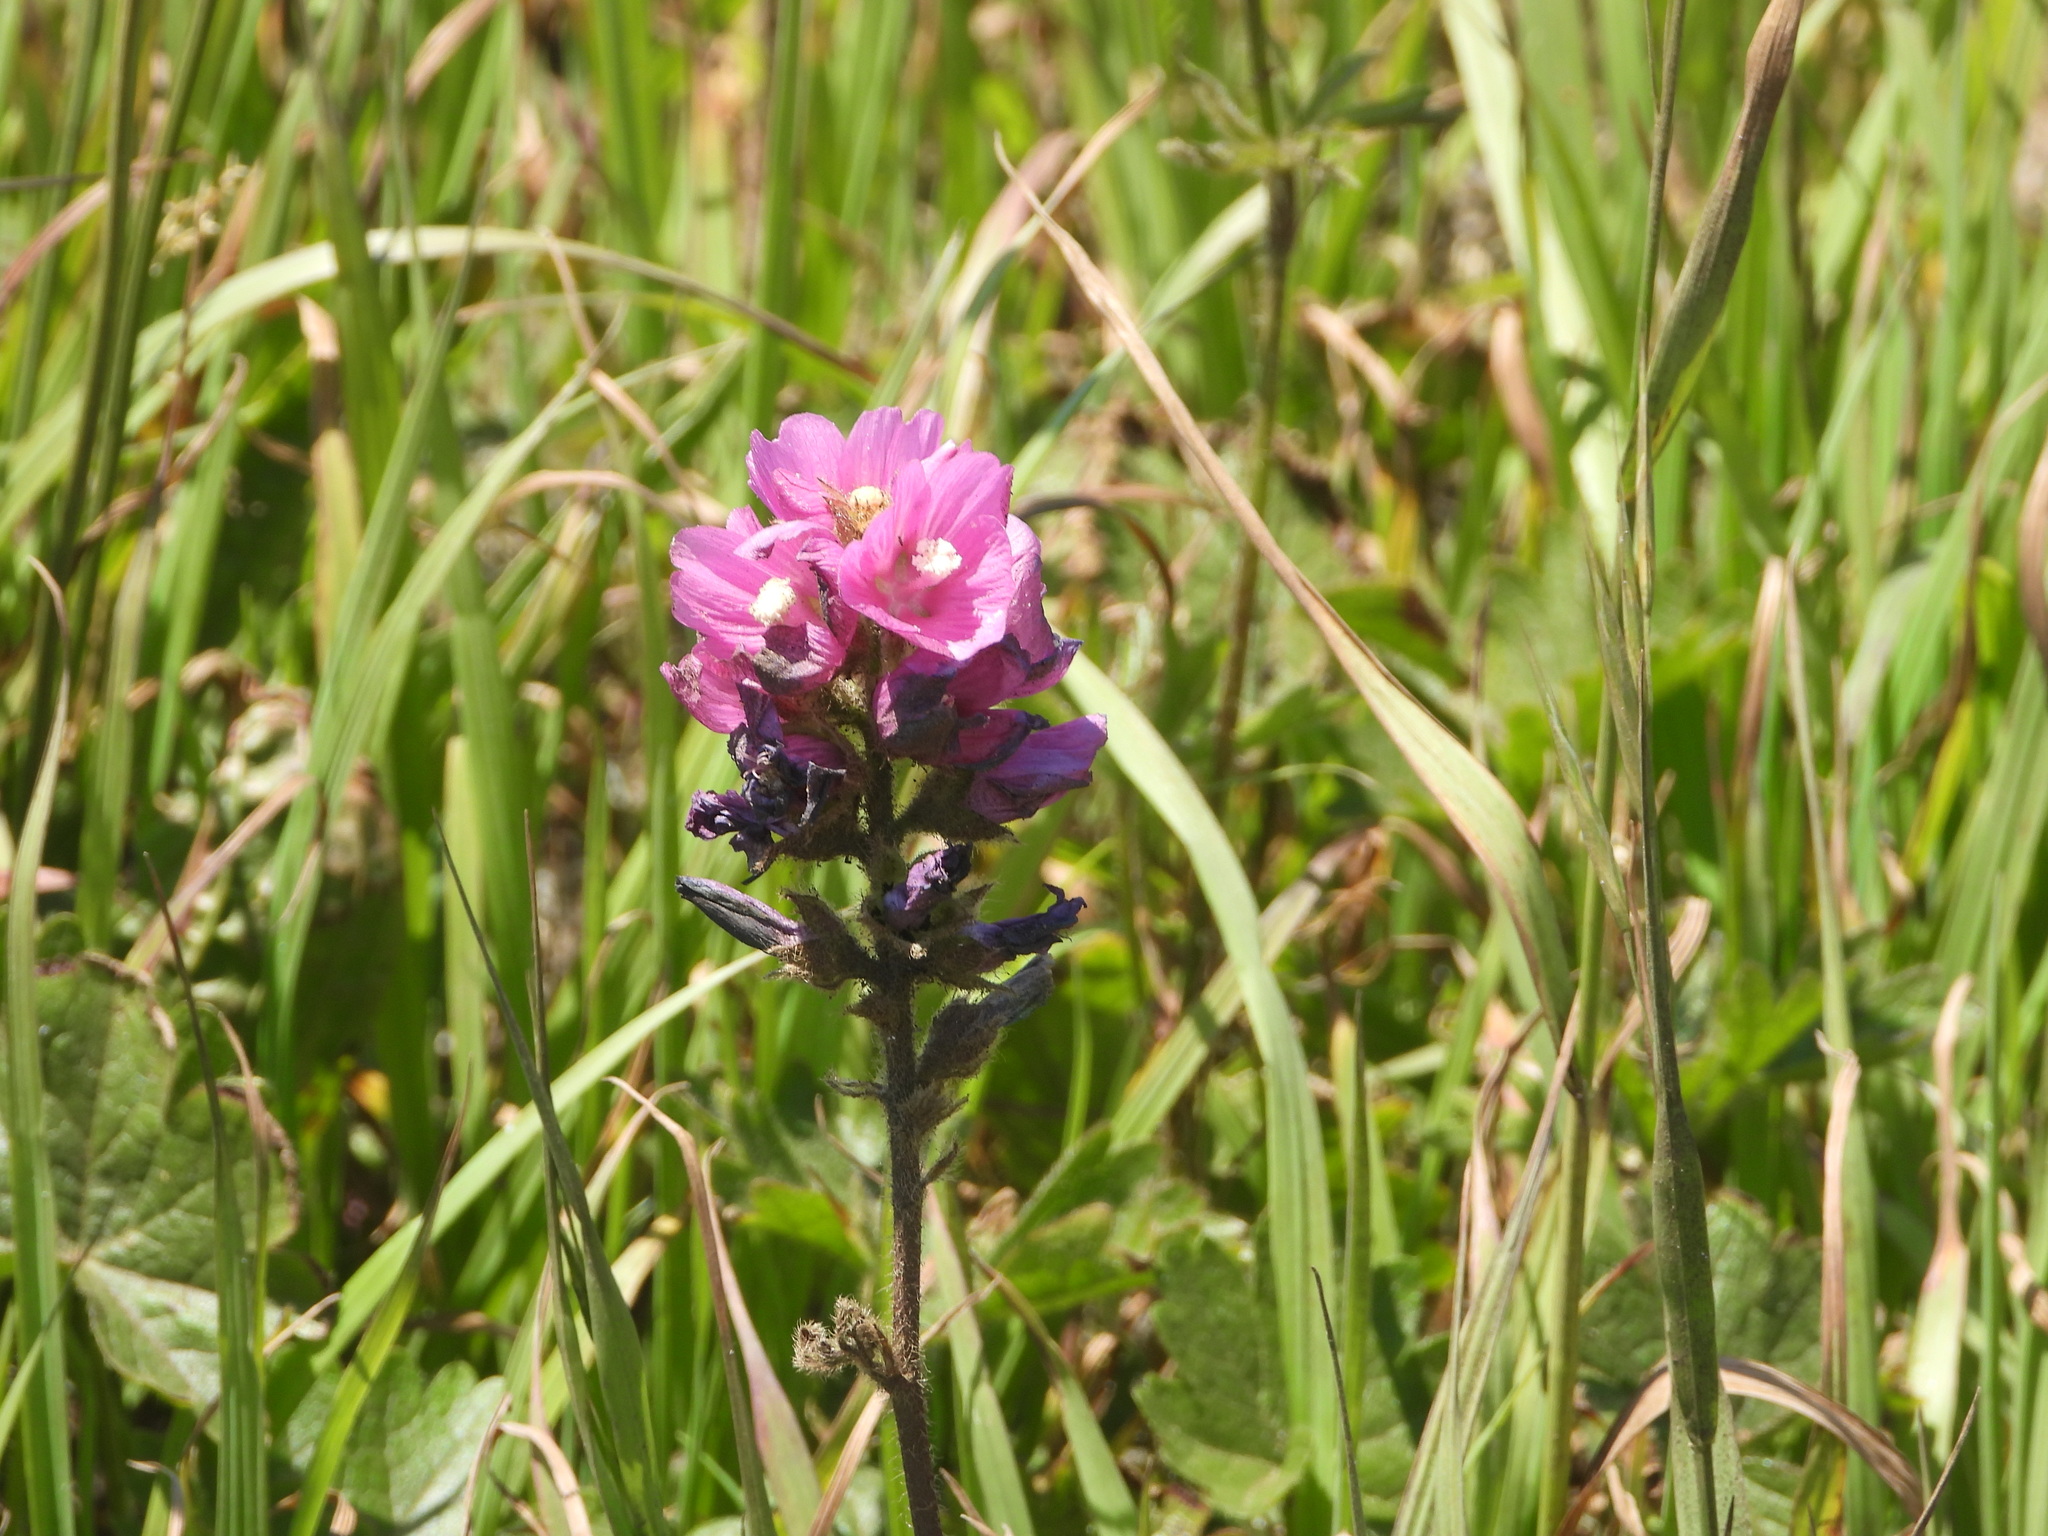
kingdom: Plantae
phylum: Tracheophyta
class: Magnoliopsida
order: Malvales
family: Malvaceae
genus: Sidalcea
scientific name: Sidalcea hirtipes
